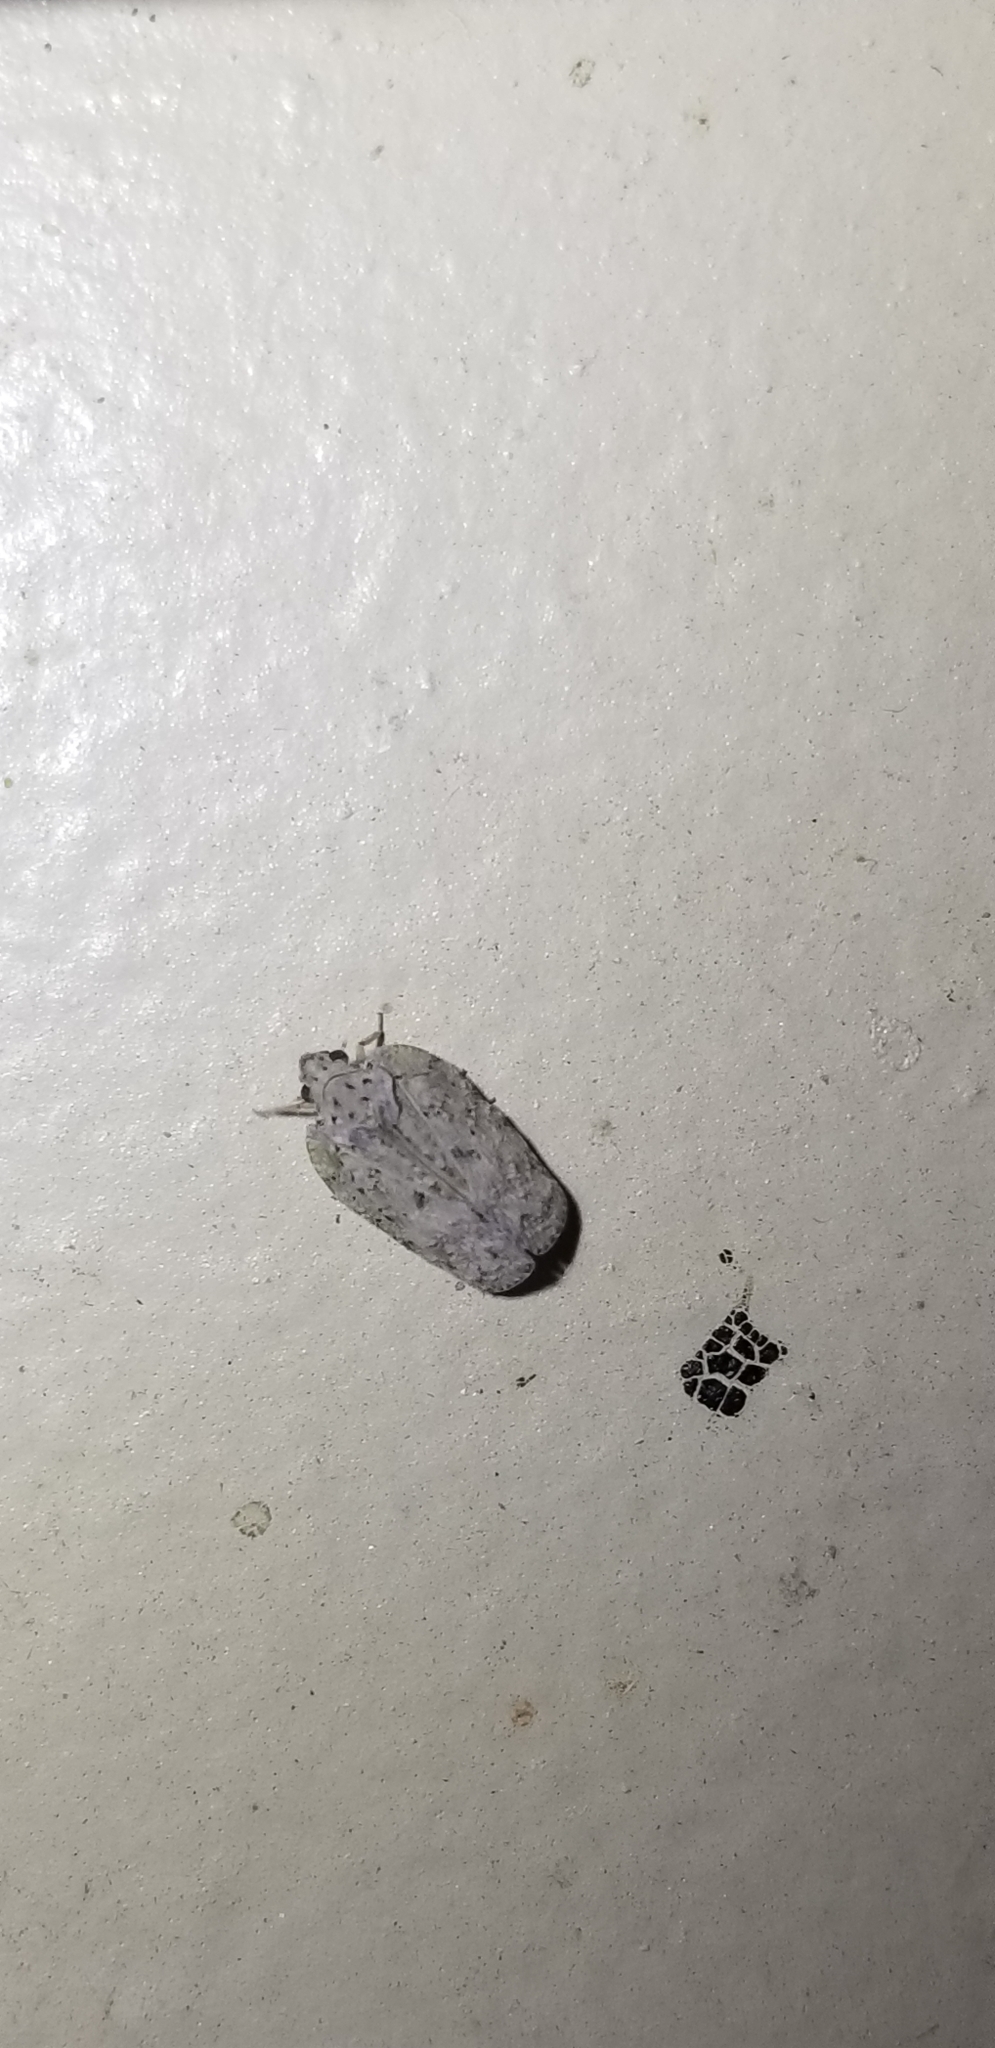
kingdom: Animalia
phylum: Arthropoda
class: Insecta
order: Hemiptera
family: Flatidae
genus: Flatoidinus
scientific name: Flatoidinus punctatus
